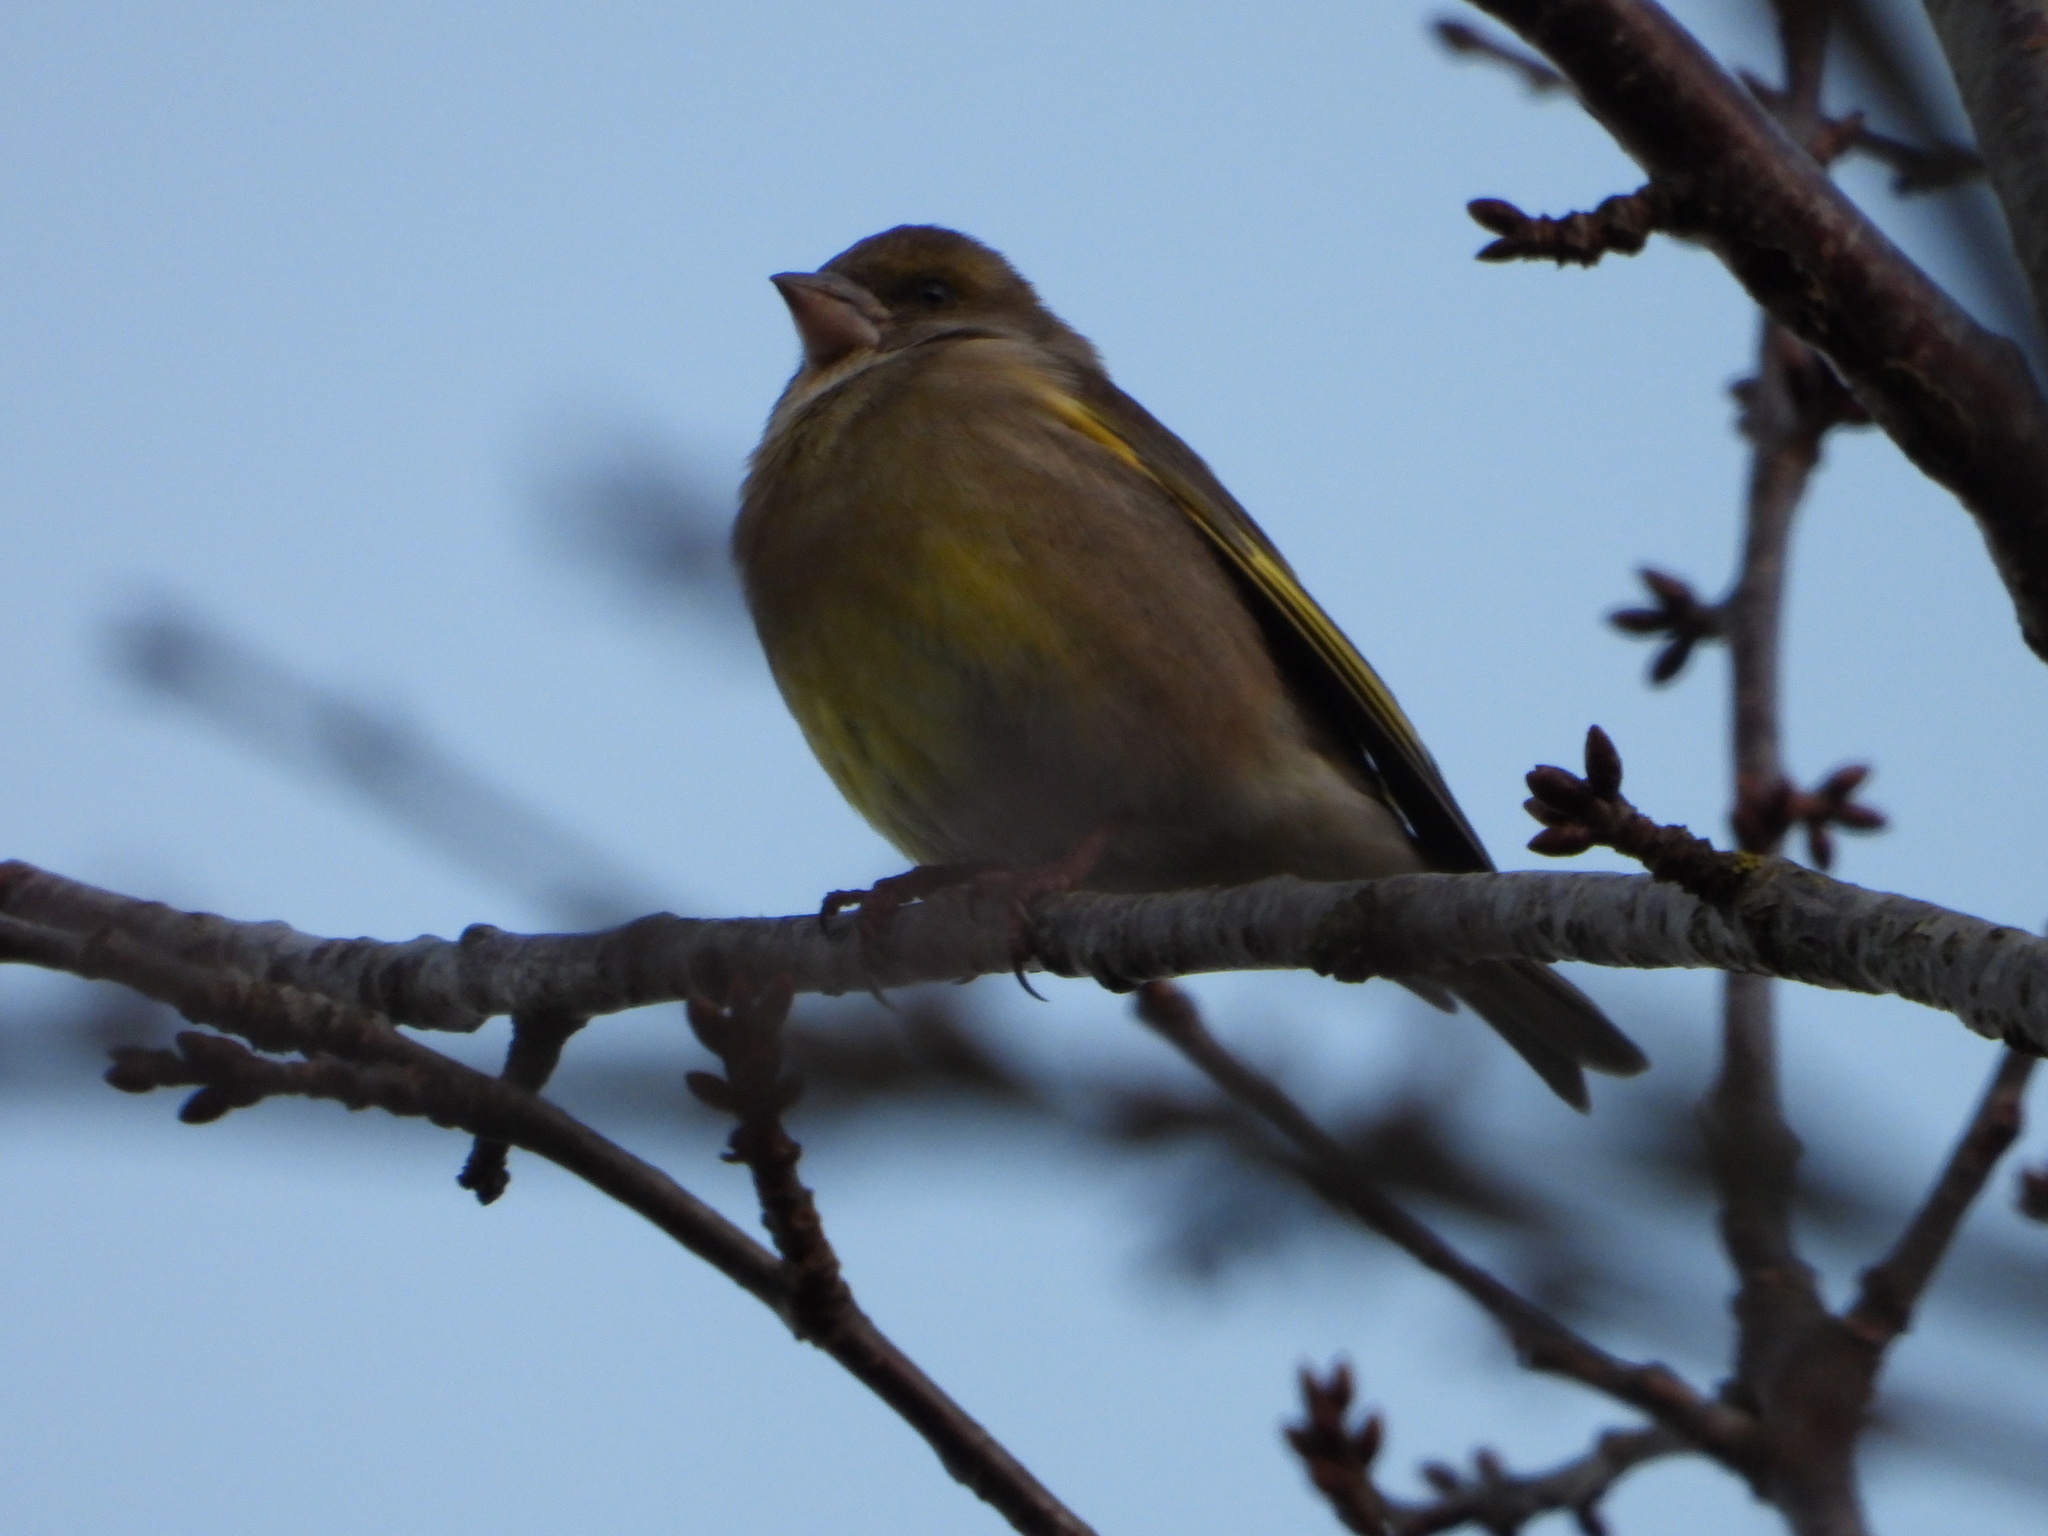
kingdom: Plantae
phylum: Tracheophyta
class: Liliopsida
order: Poales
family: Poaceae
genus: Chloris
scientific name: Chloris chloris
